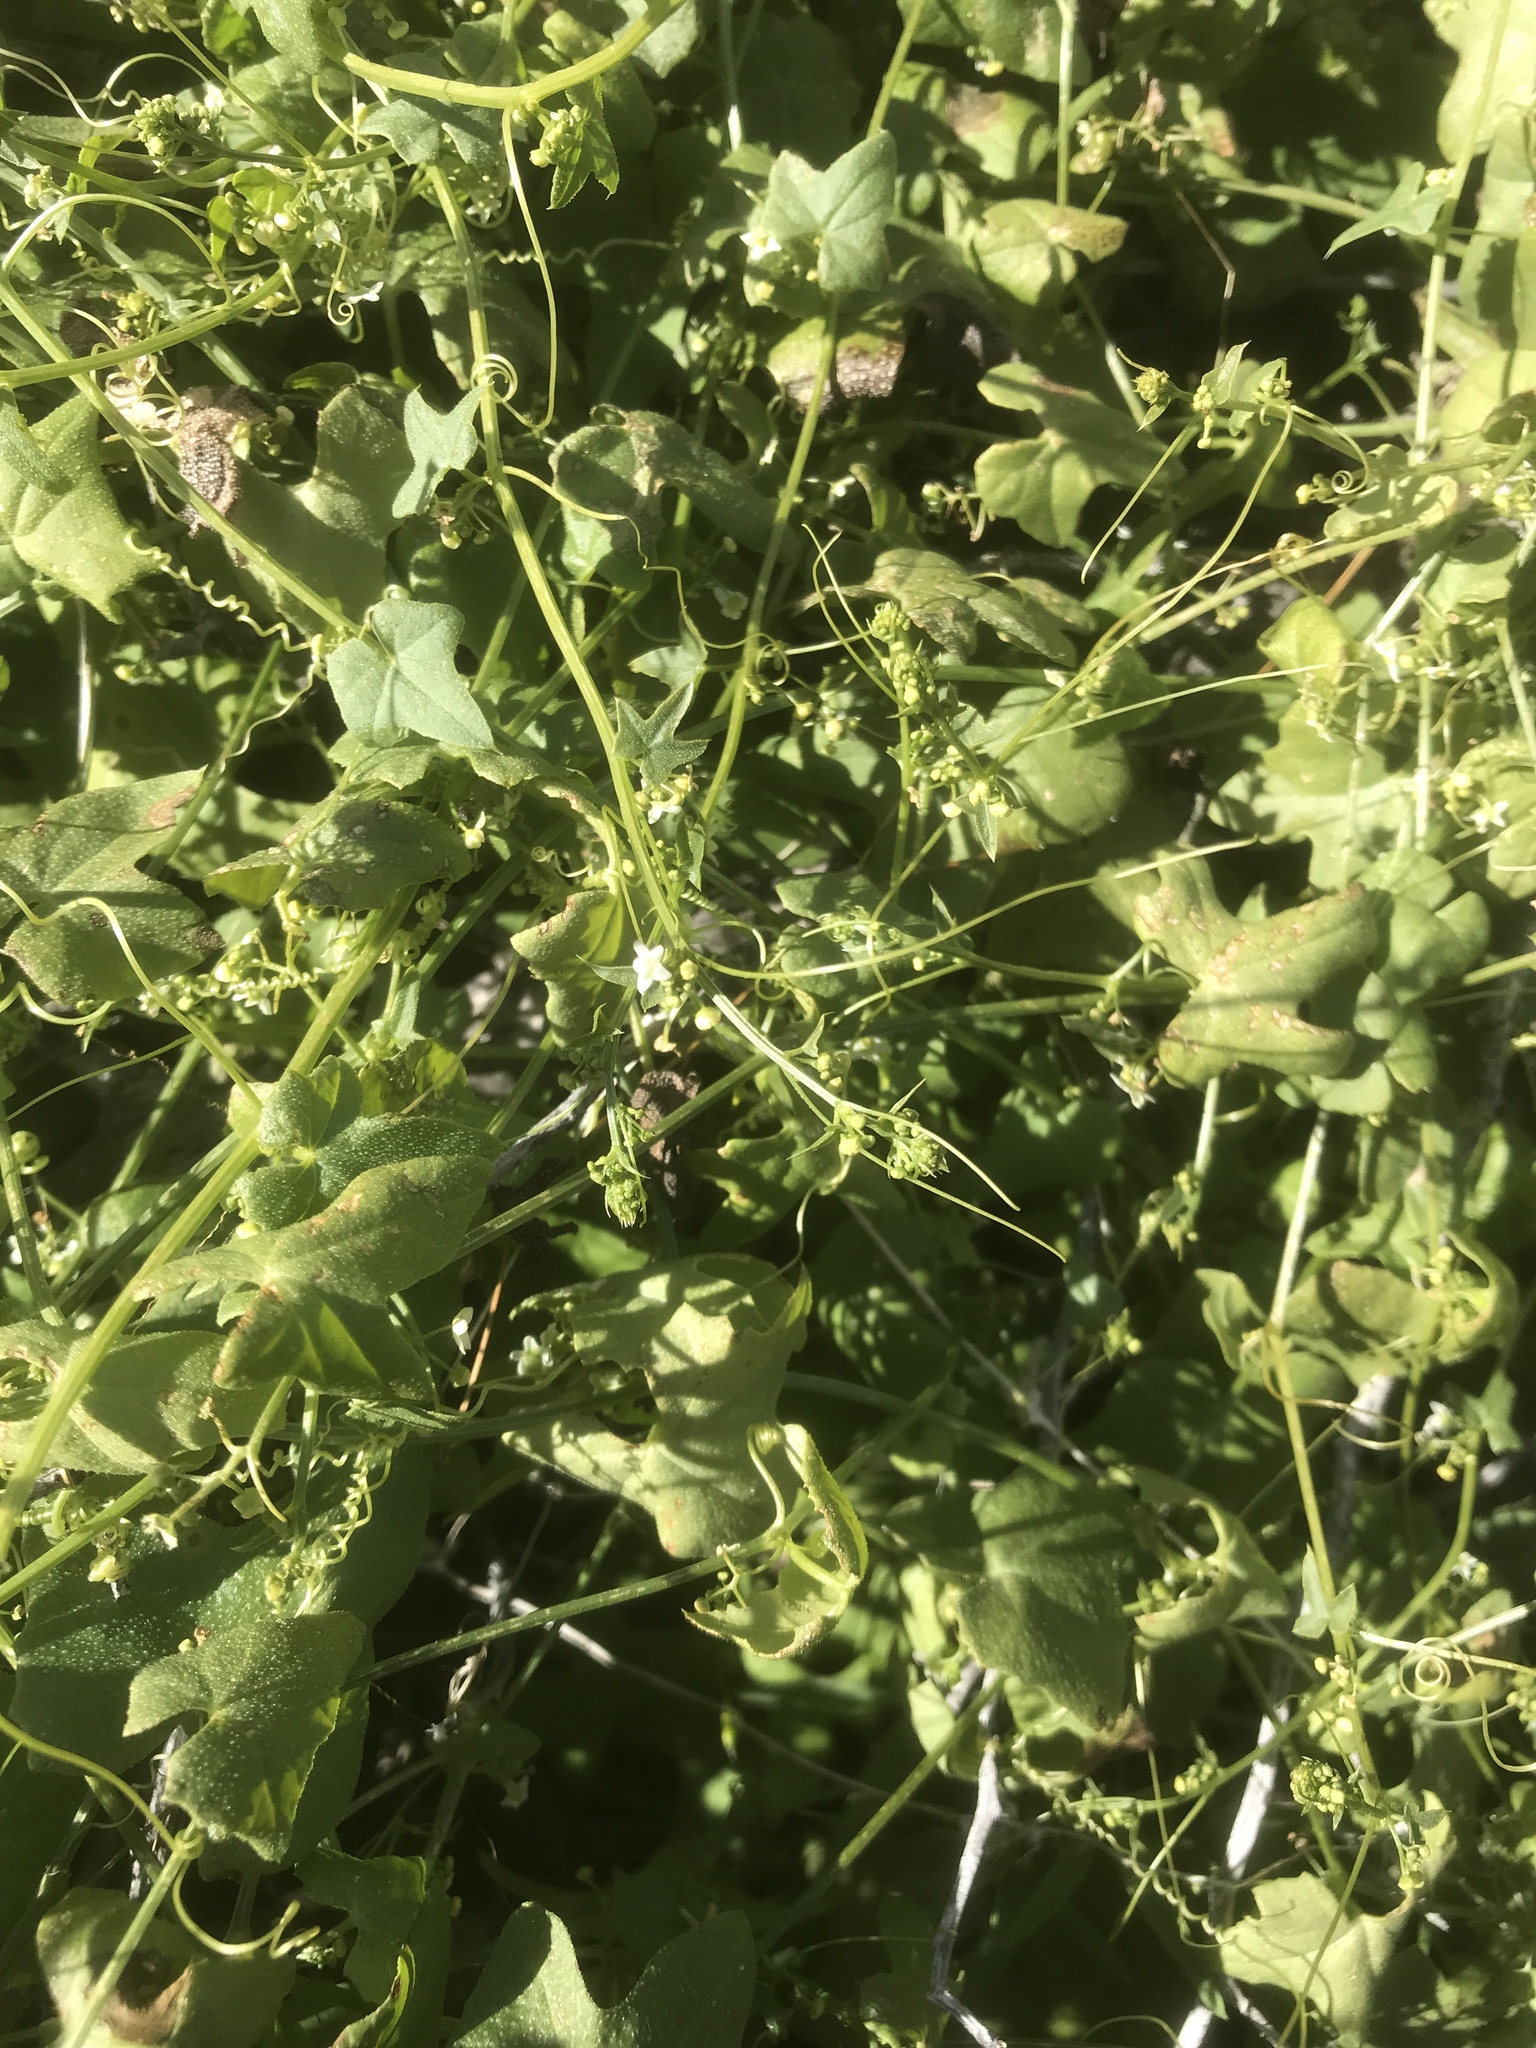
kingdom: Plantae
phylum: Tracheophyta
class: Magnoliopsida
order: Cucurbitales
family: Cucurbitaceae
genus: Echinopepon
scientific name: Echinopepon bigelovii
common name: Desert starvine
